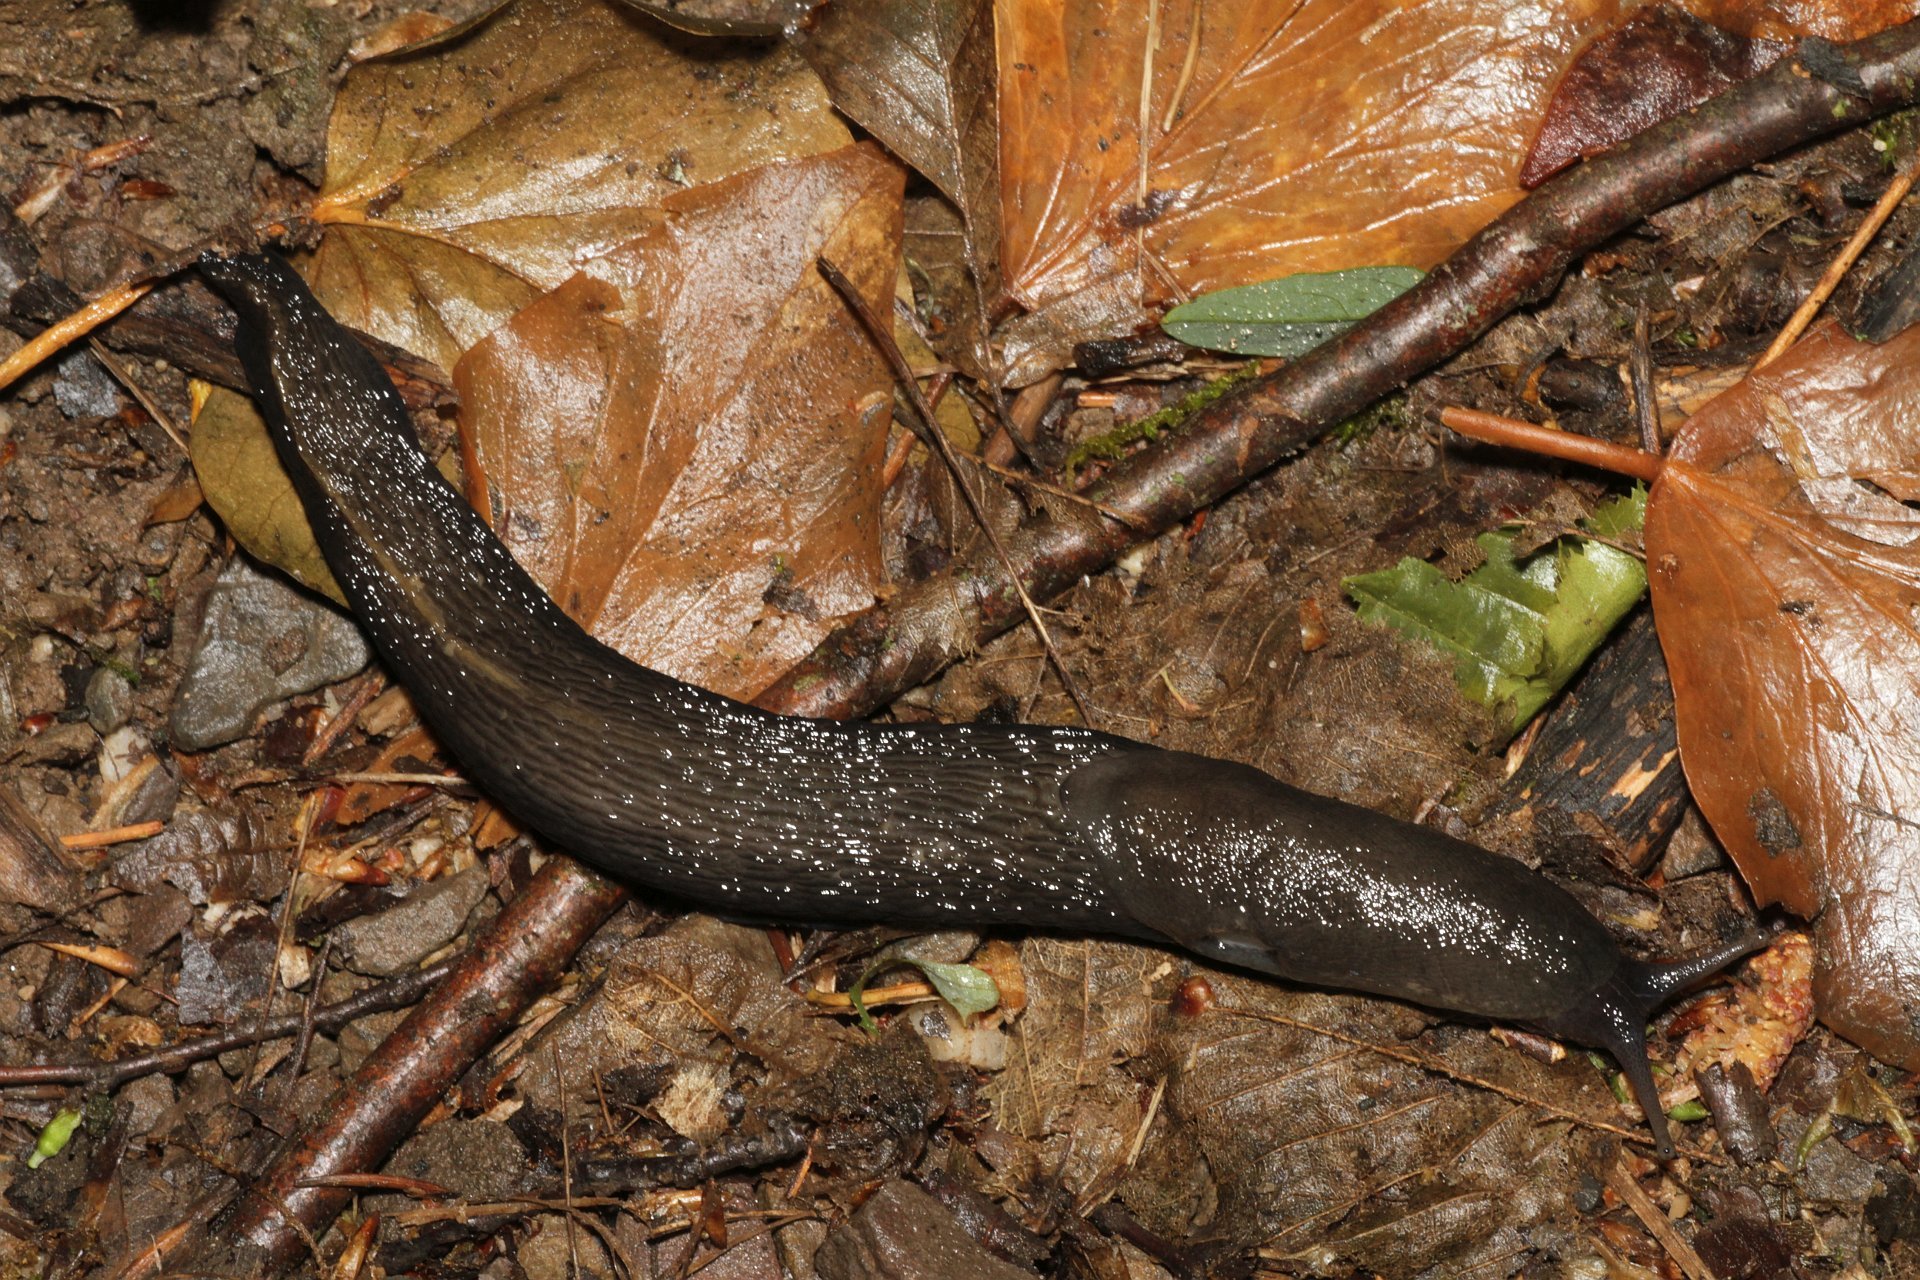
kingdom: Animalia
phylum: Mollusca
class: Gastropoda
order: Stylommatophora
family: Limacidae
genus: Limax
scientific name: Limax cinereoniger
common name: Ash-black slug
